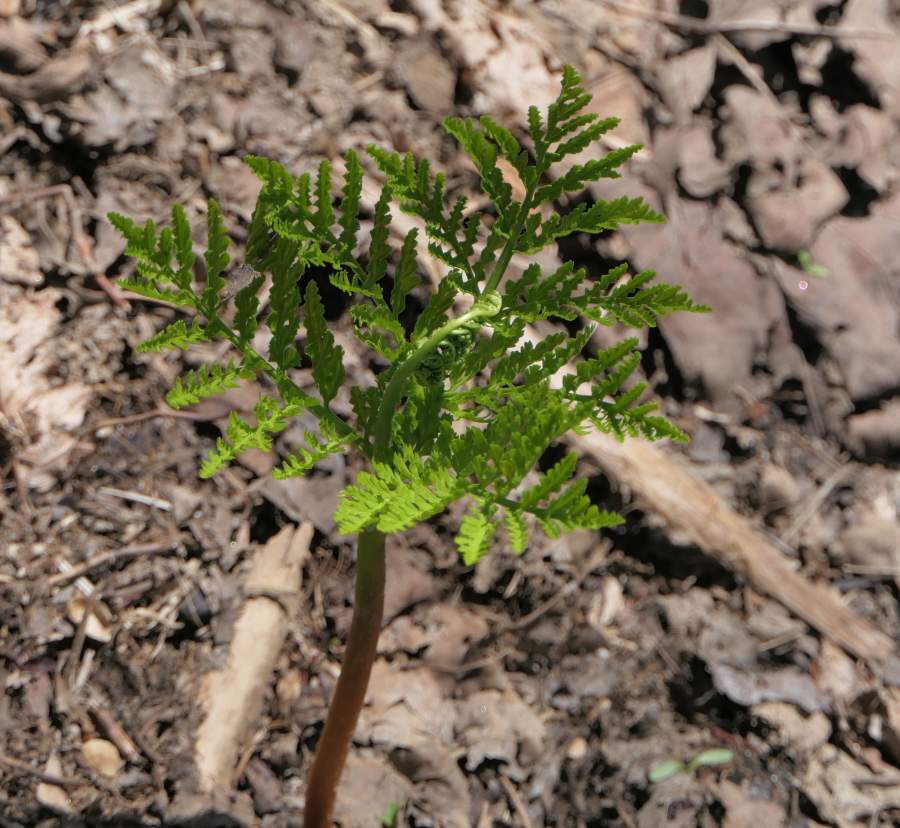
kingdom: Plantae
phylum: Tracheophyta
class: Polypodiopsida
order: Ophioglossales
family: Ophioglossaceae
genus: Botrypus
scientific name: Botrypus virginianus
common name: Common grapefern
